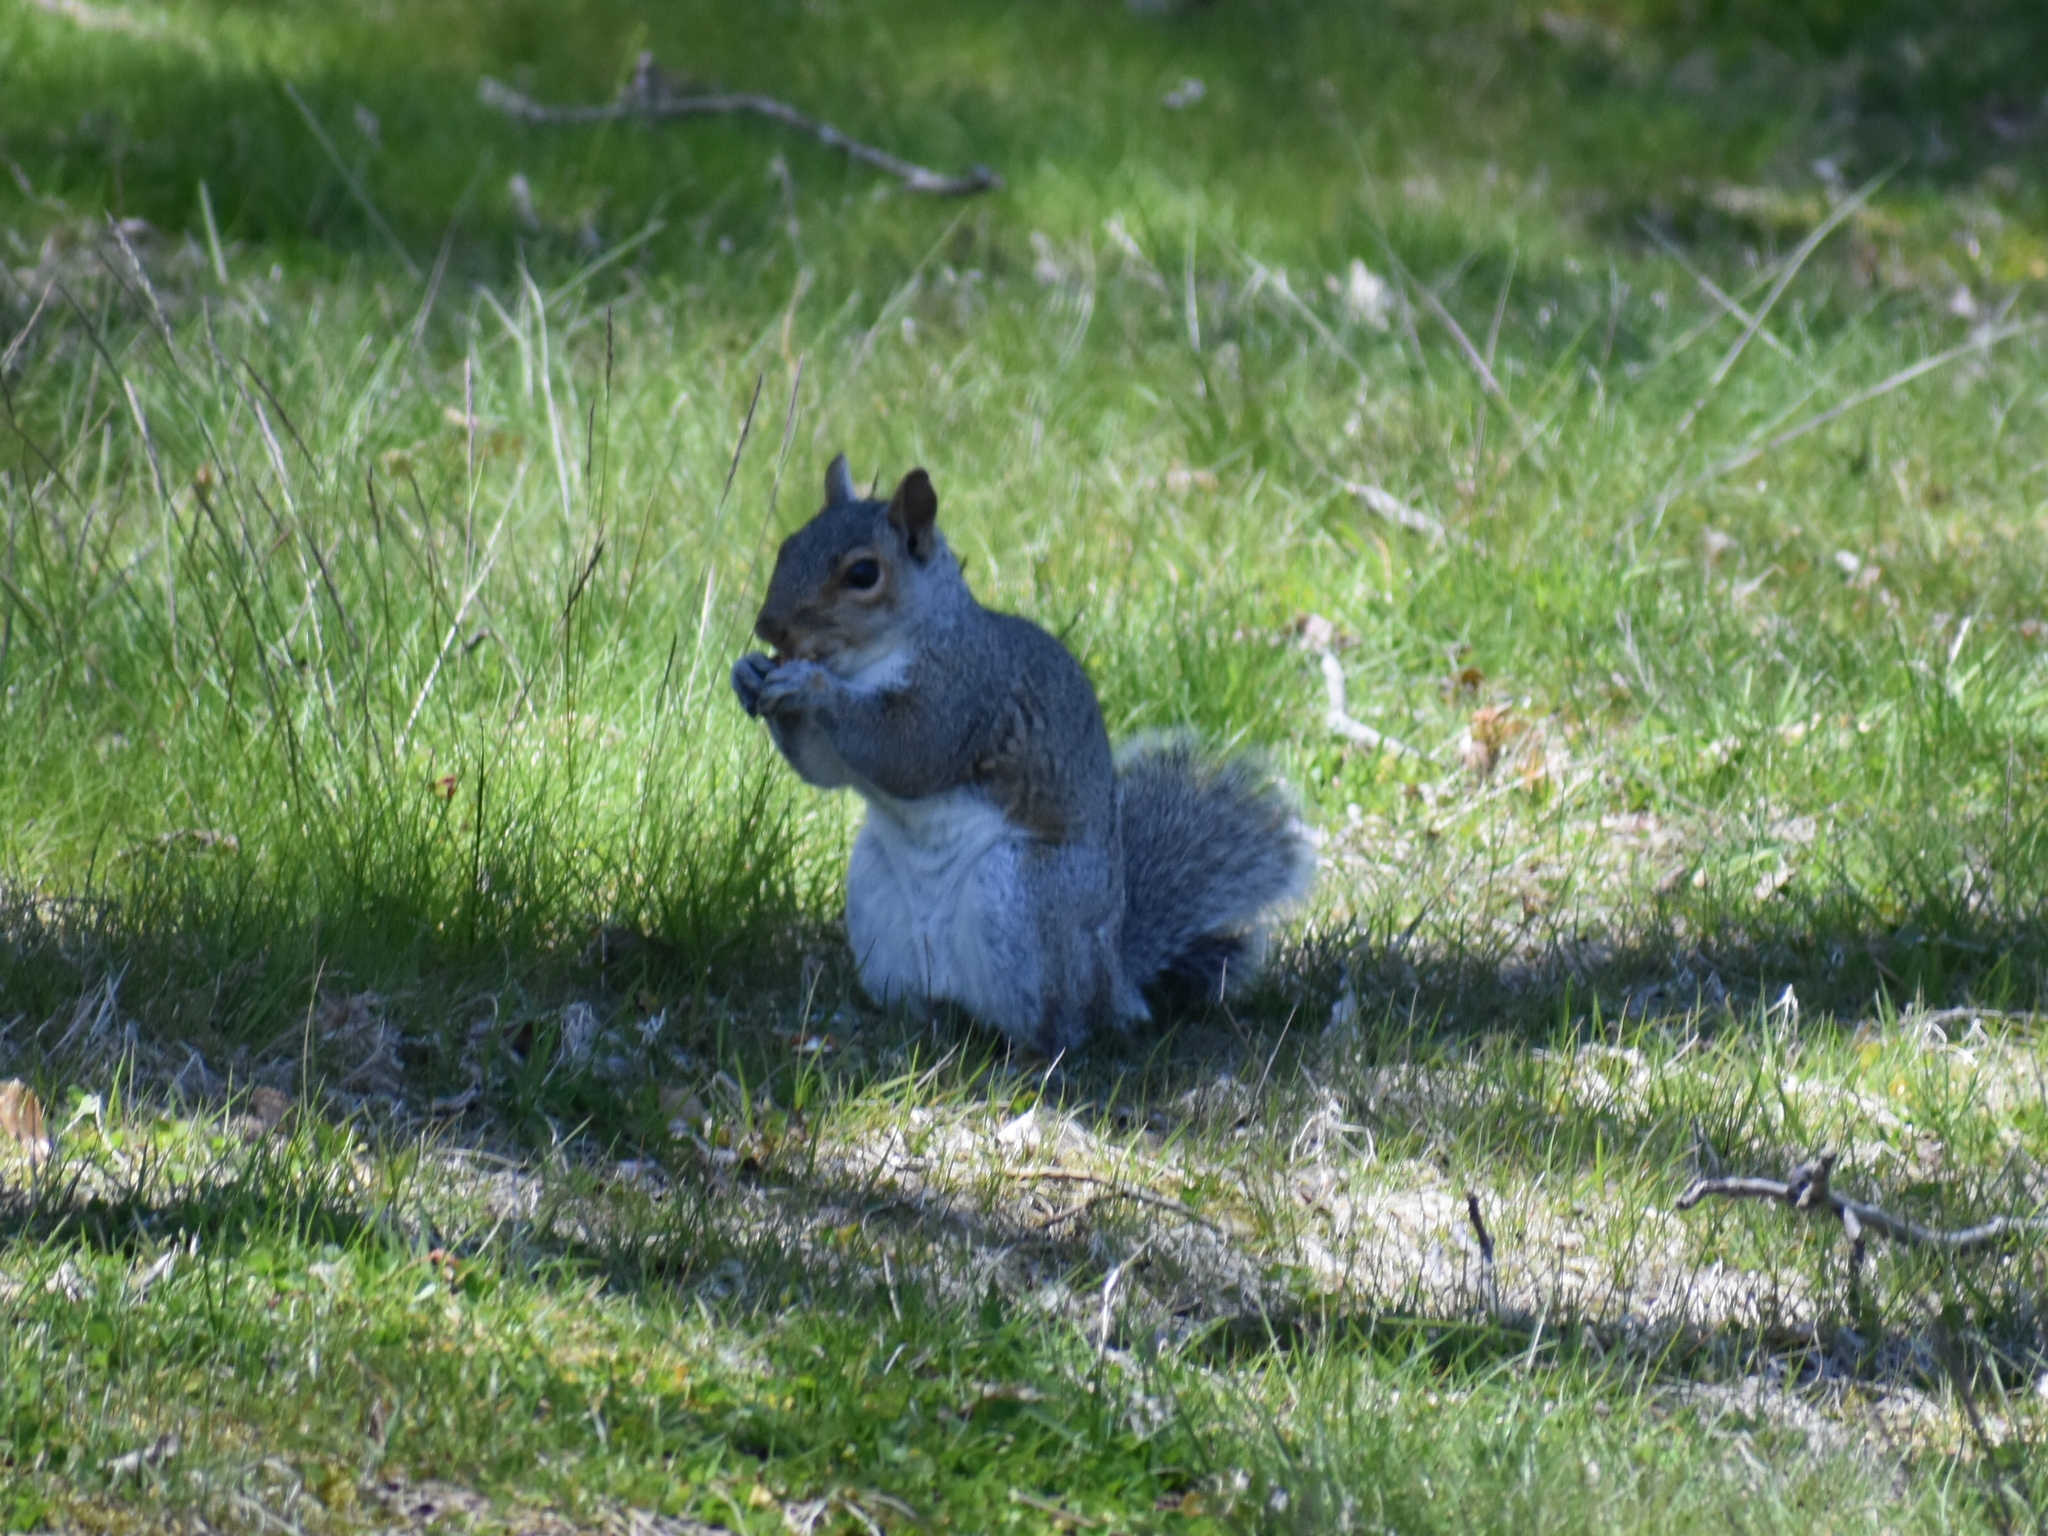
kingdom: Animalia
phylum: Chordata
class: Mammalia
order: Rodentia
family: Sciuridae
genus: Sciurus
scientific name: Sciurus carolinensis
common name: Eastern gray squirrel
